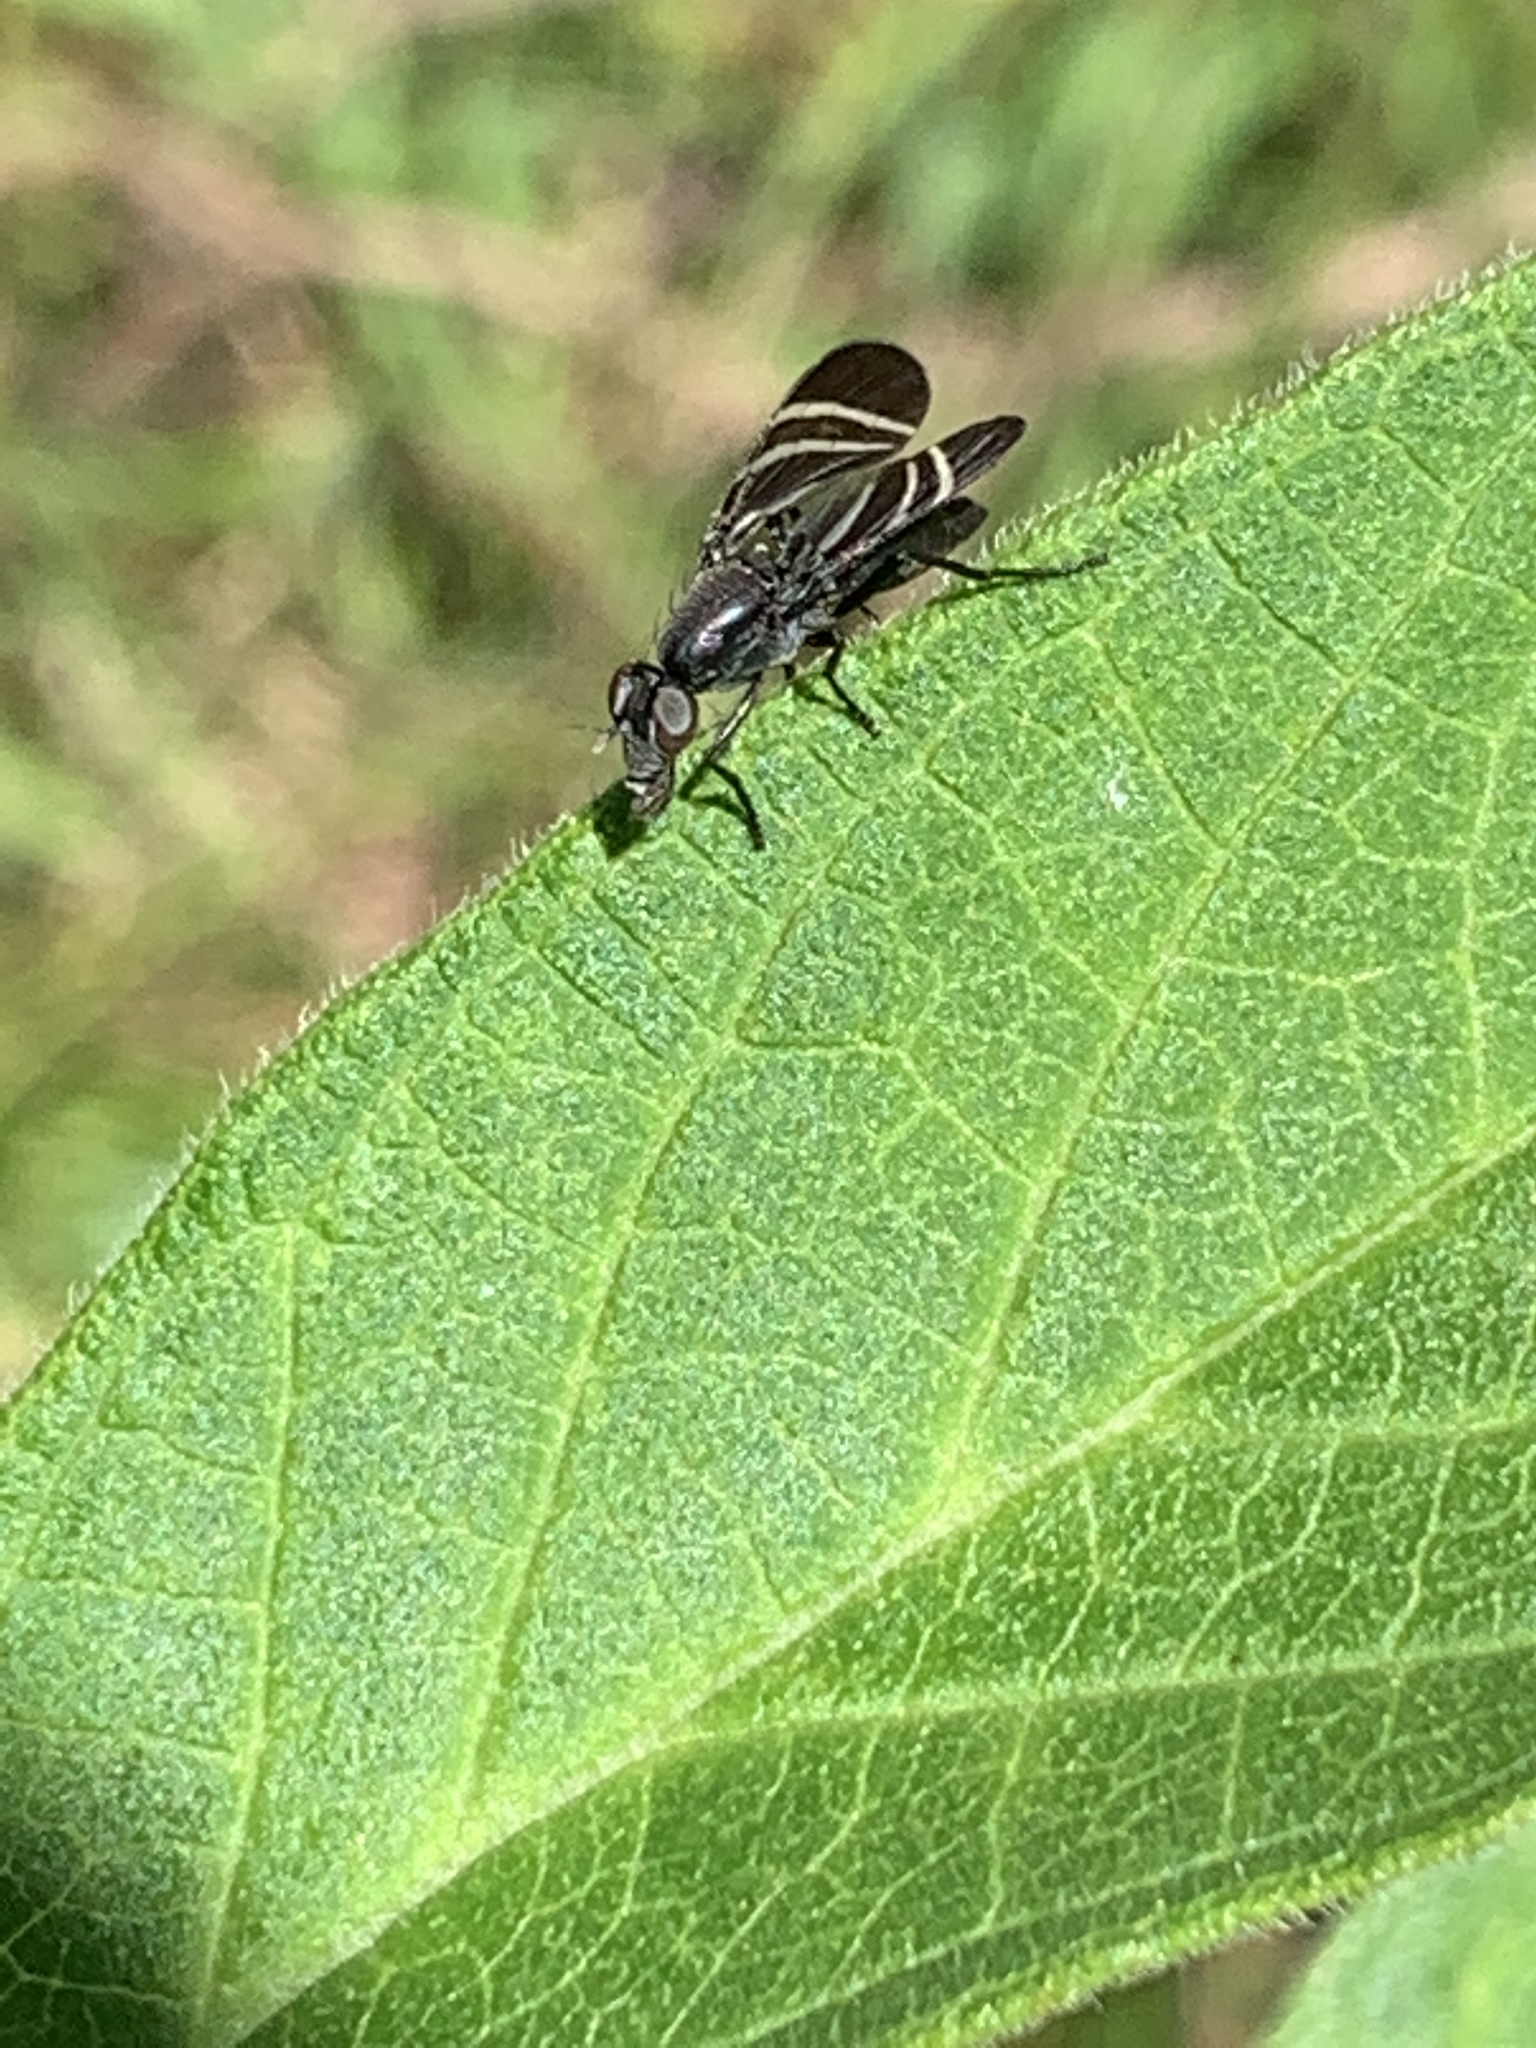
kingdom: Animalia
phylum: Arthropoda
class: Insecta
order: Diptera
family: Ulidiidae
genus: Tritoxa
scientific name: Tritoxa flexa
